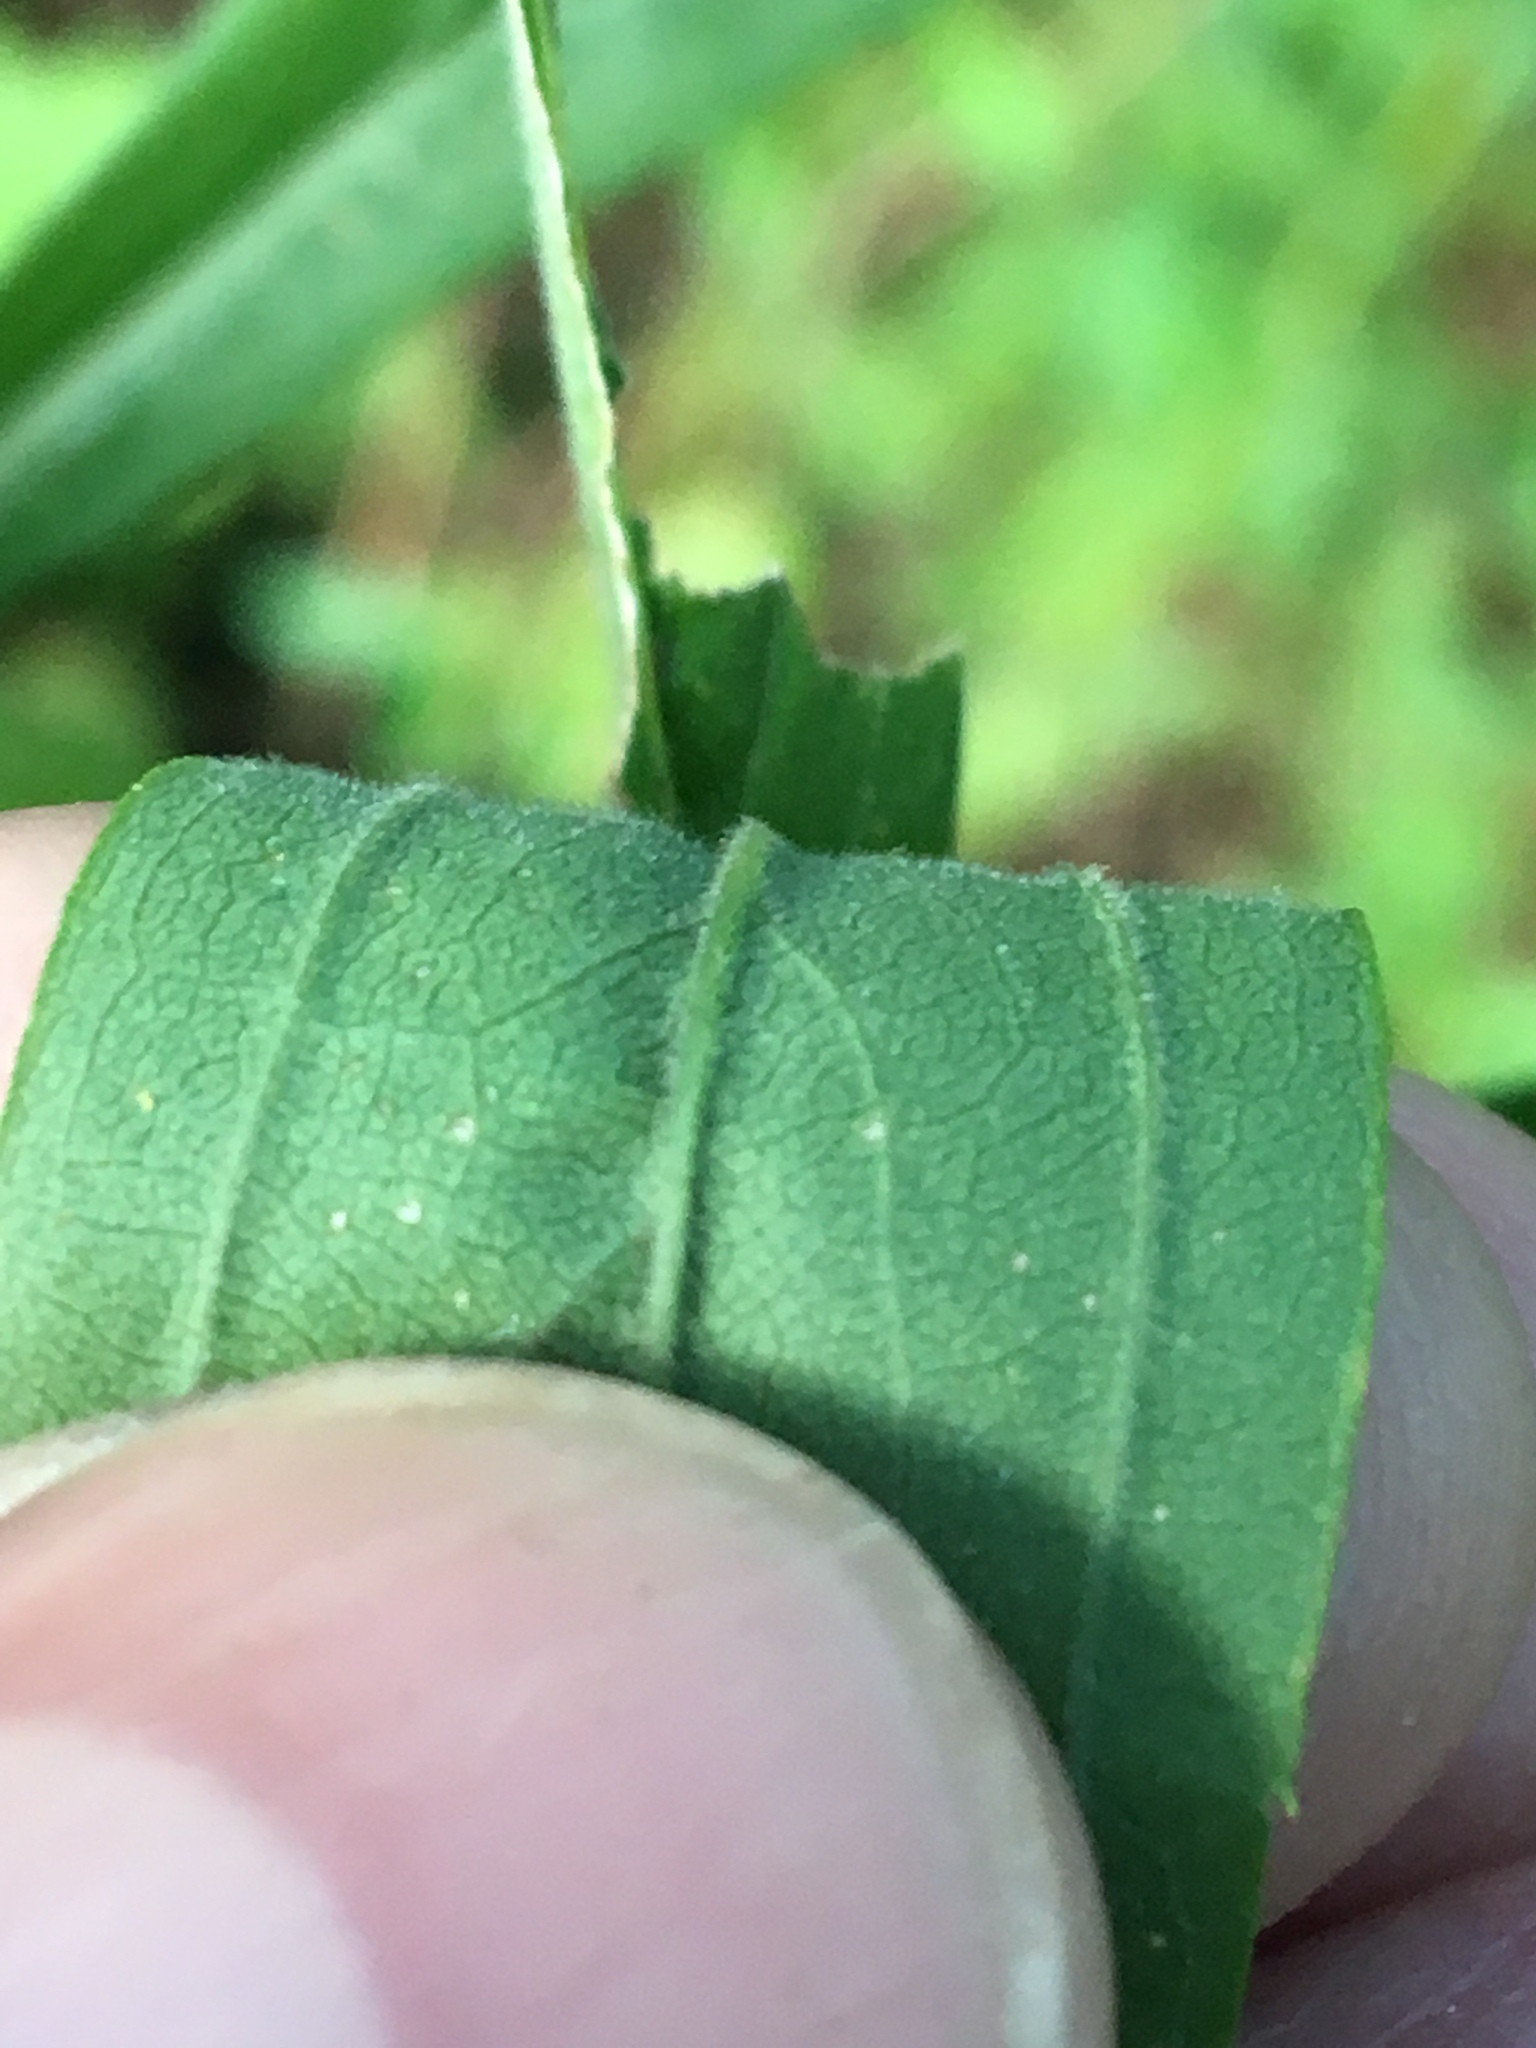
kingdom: Plantae
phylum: Tracheophyta
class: Magnoliopsida
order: Asterales
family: Asteraceae
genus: Solidago
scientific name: Solidago altissima
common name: Late goldenrod
